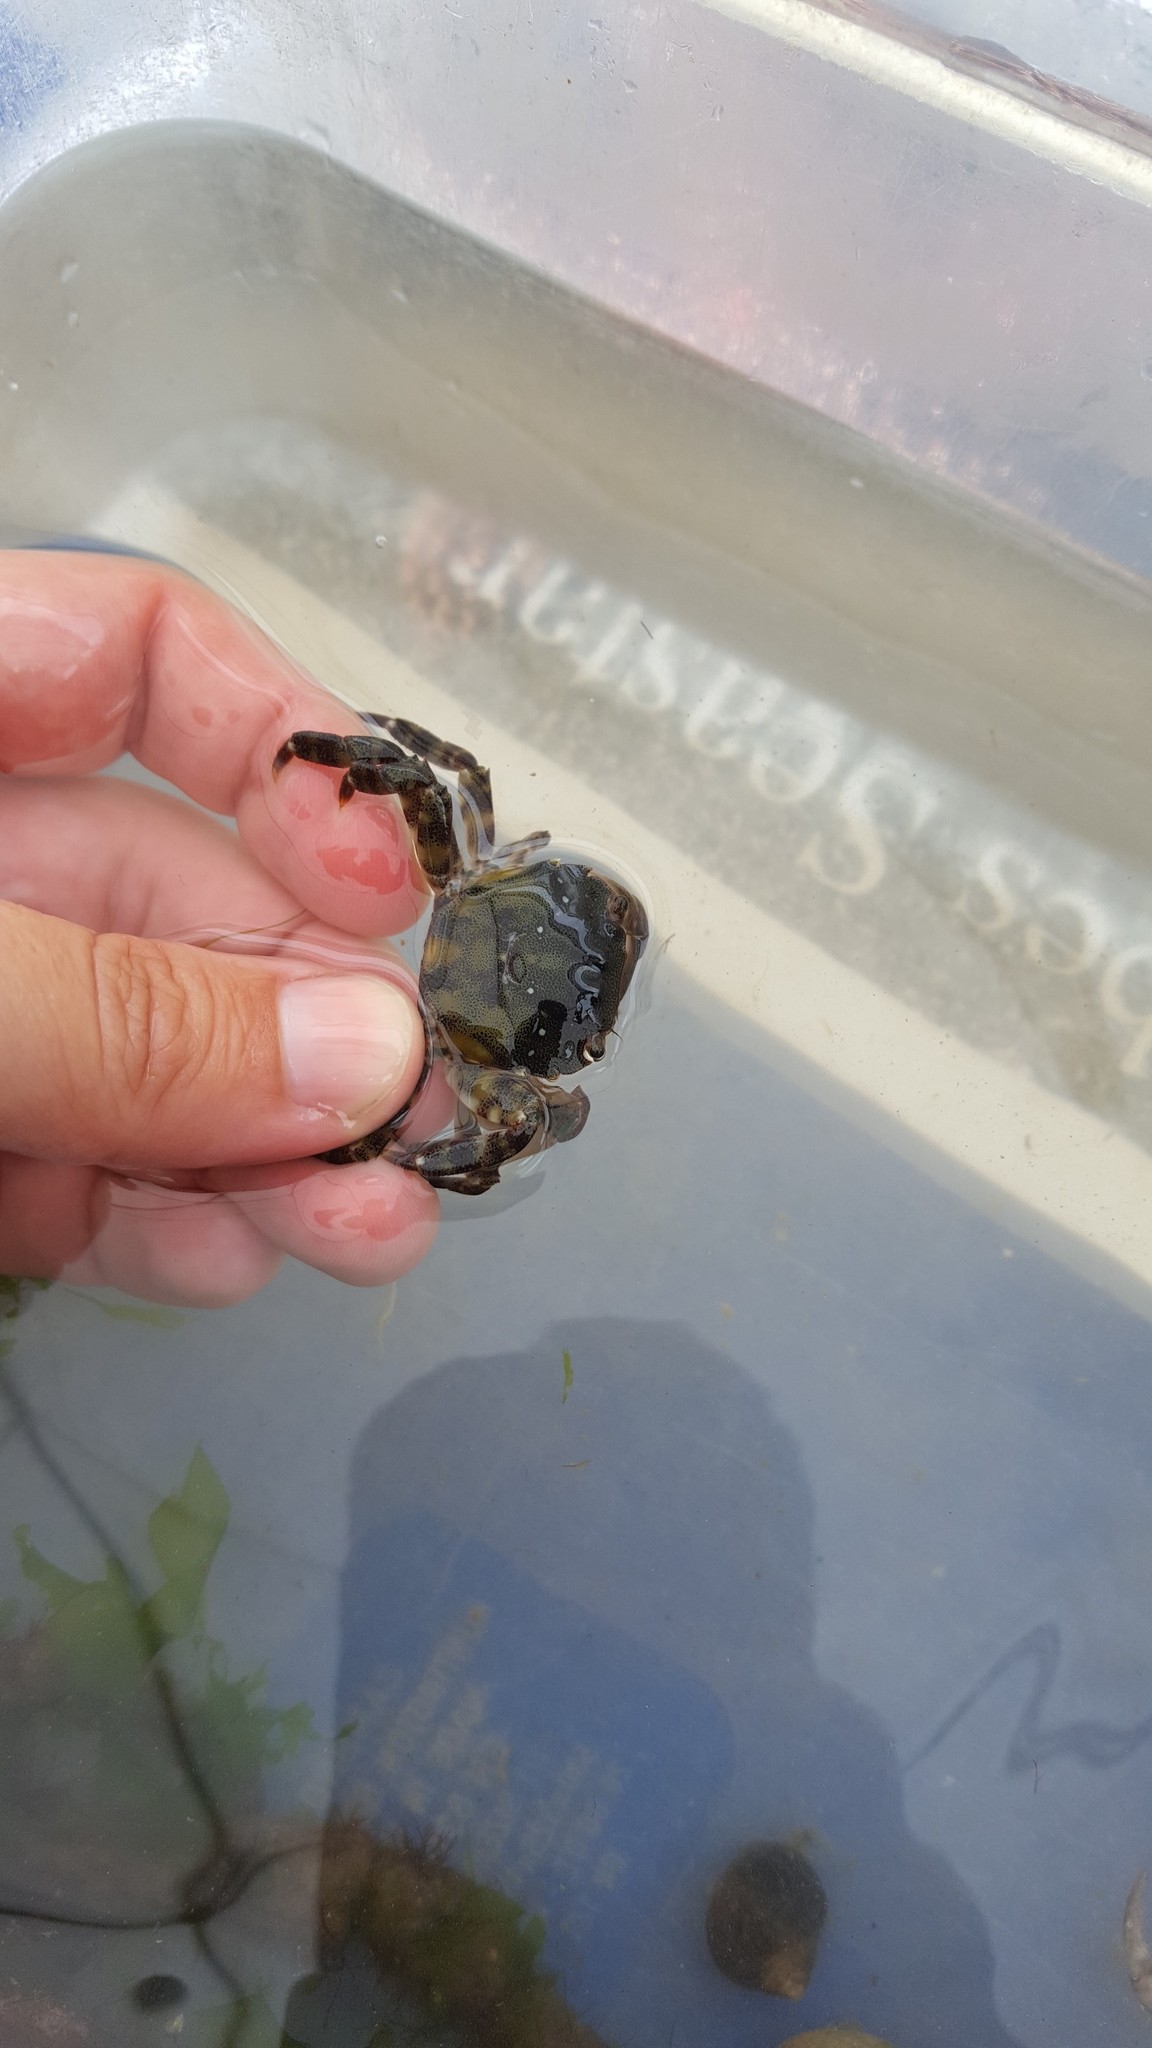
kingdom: Animalia
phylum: Arthropoda
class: Malacostraca
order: Decapoda
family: Varunidae
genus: Hemigrapsus
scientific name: Hemigrapsus sanguineus
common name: Asian shore crab
